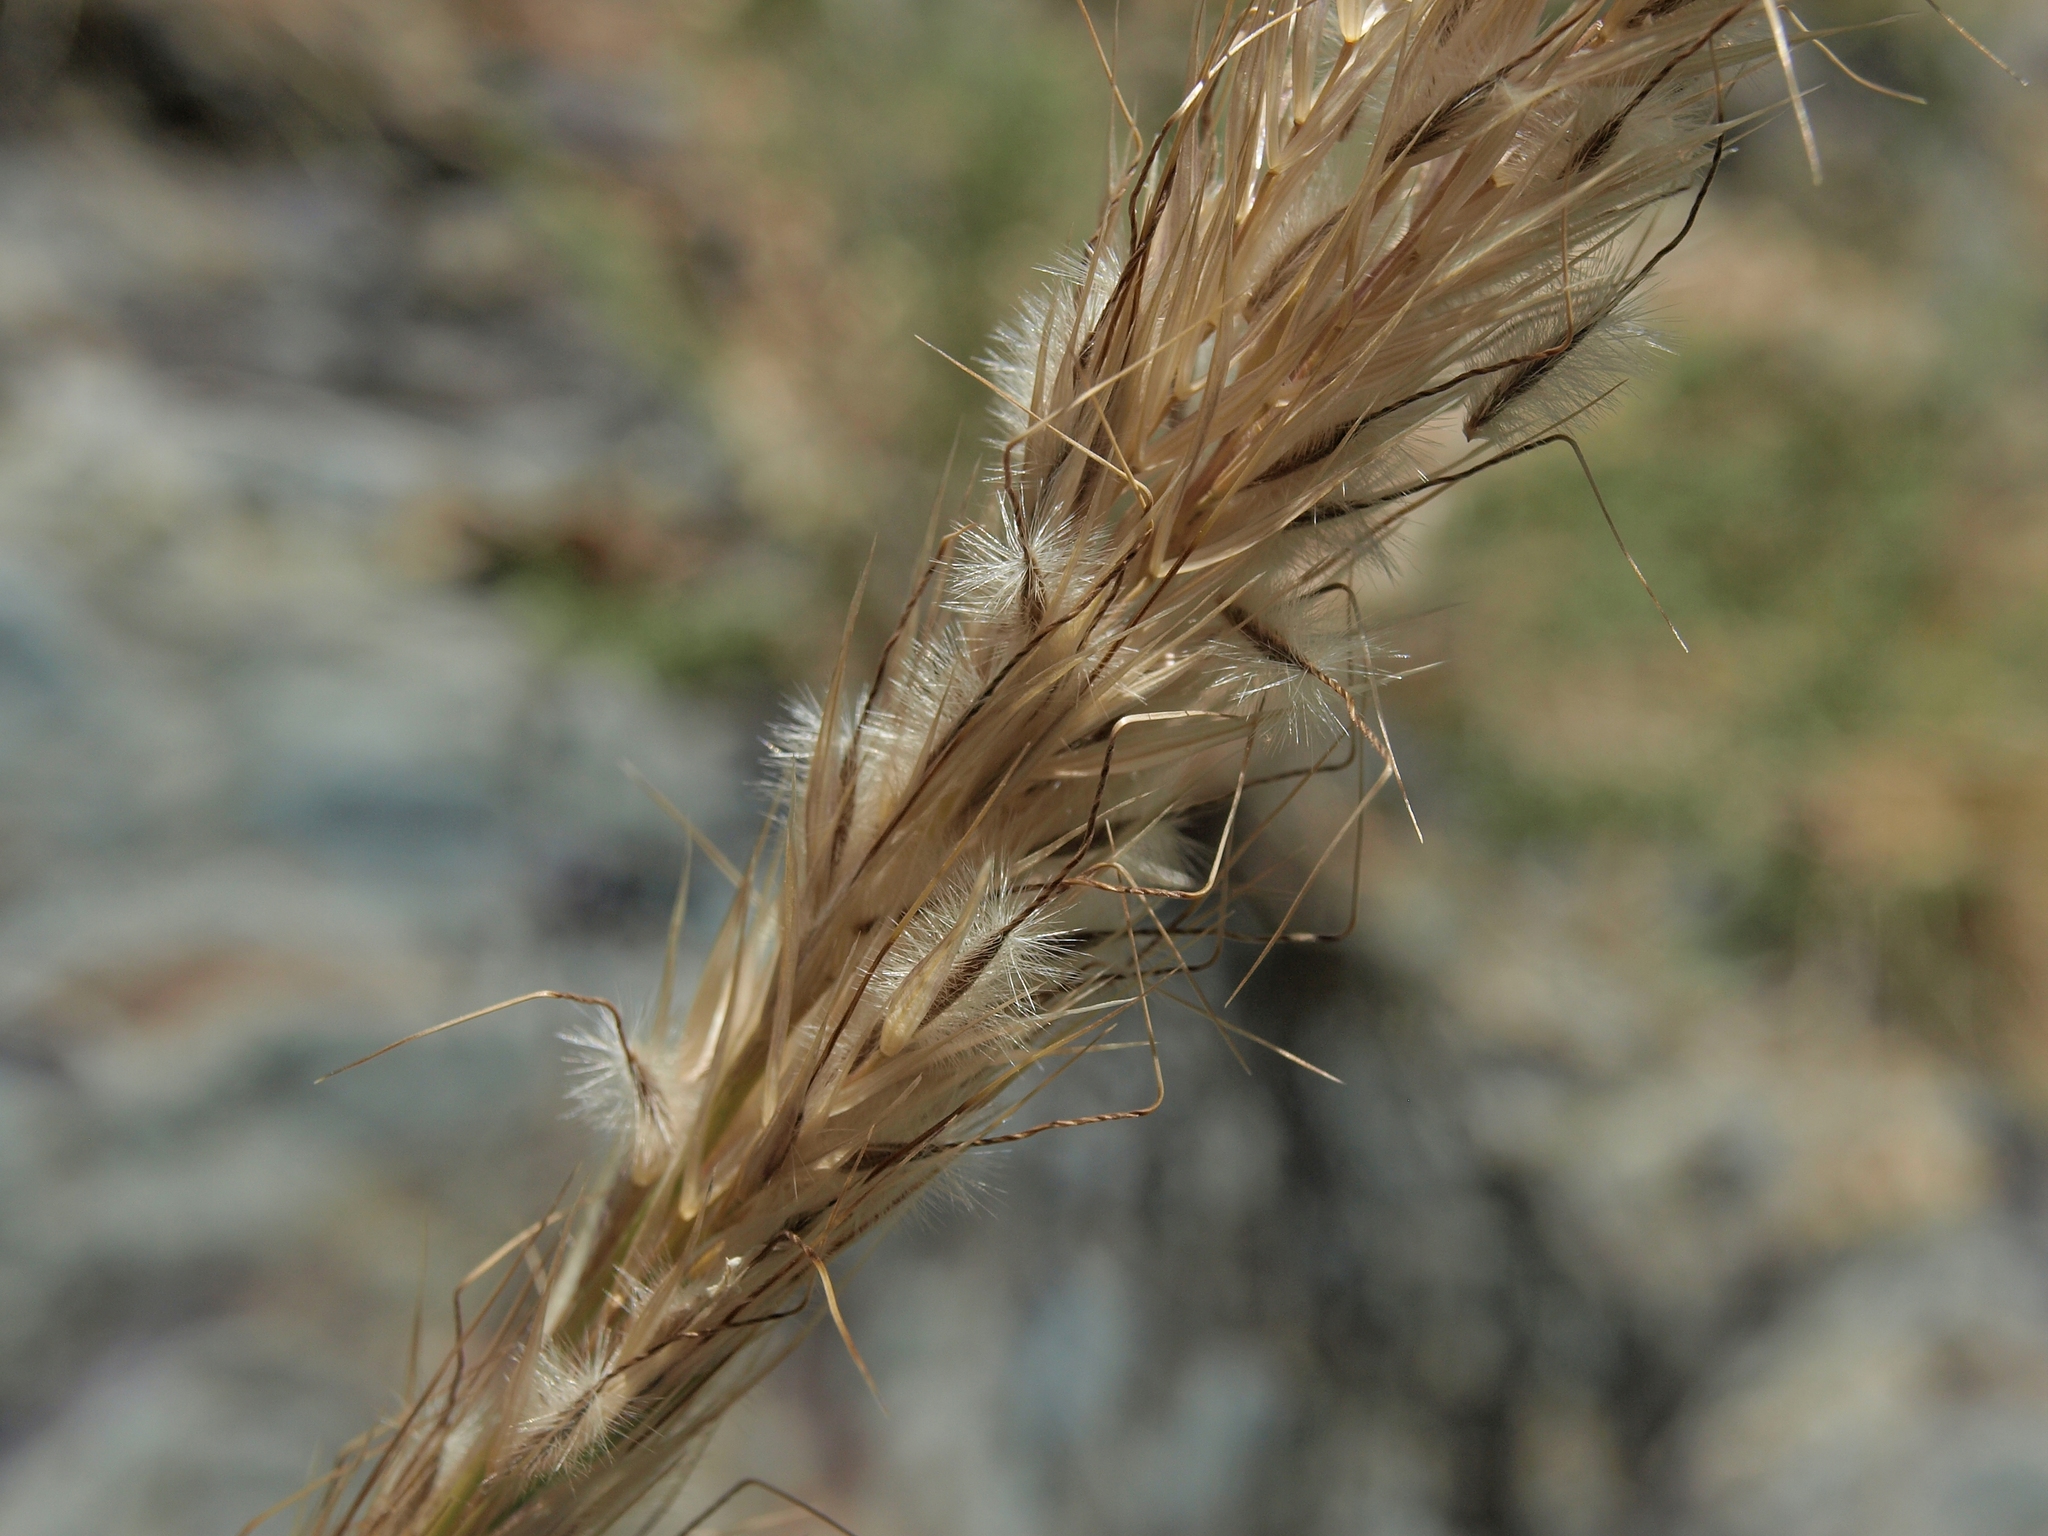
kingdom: Plantae
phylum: Tracheophyta
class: Liliopsida
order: Poales
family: Poaceae
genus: Eriocoma
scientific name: Eriocoma parishii
